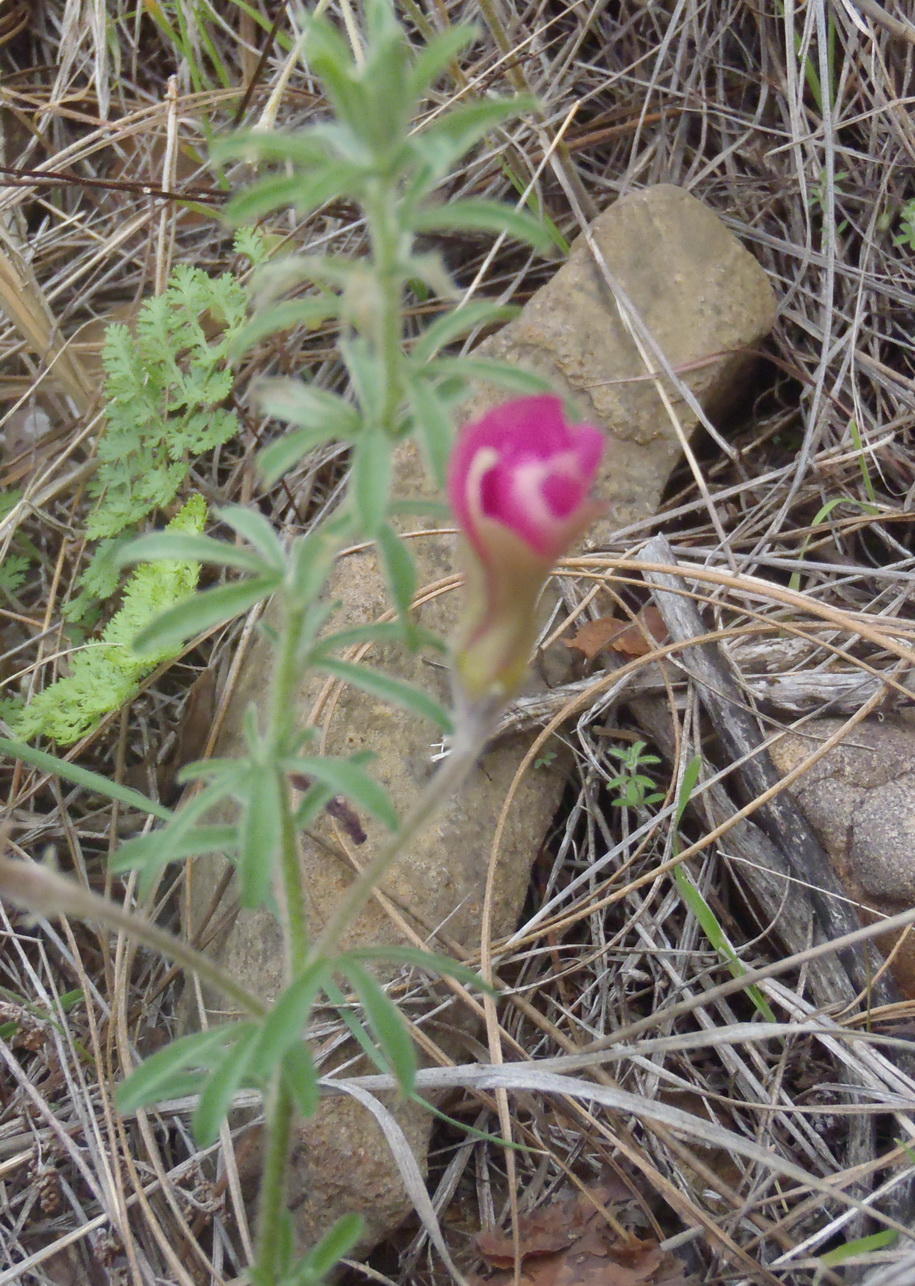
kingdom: Plantae
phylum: Tracheophyta
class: Magnoliopsida
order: Oxalidales
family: Oxalidaceae
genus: Oxalis
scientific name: Oxalis hirta
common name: Tropical woodsorrel
